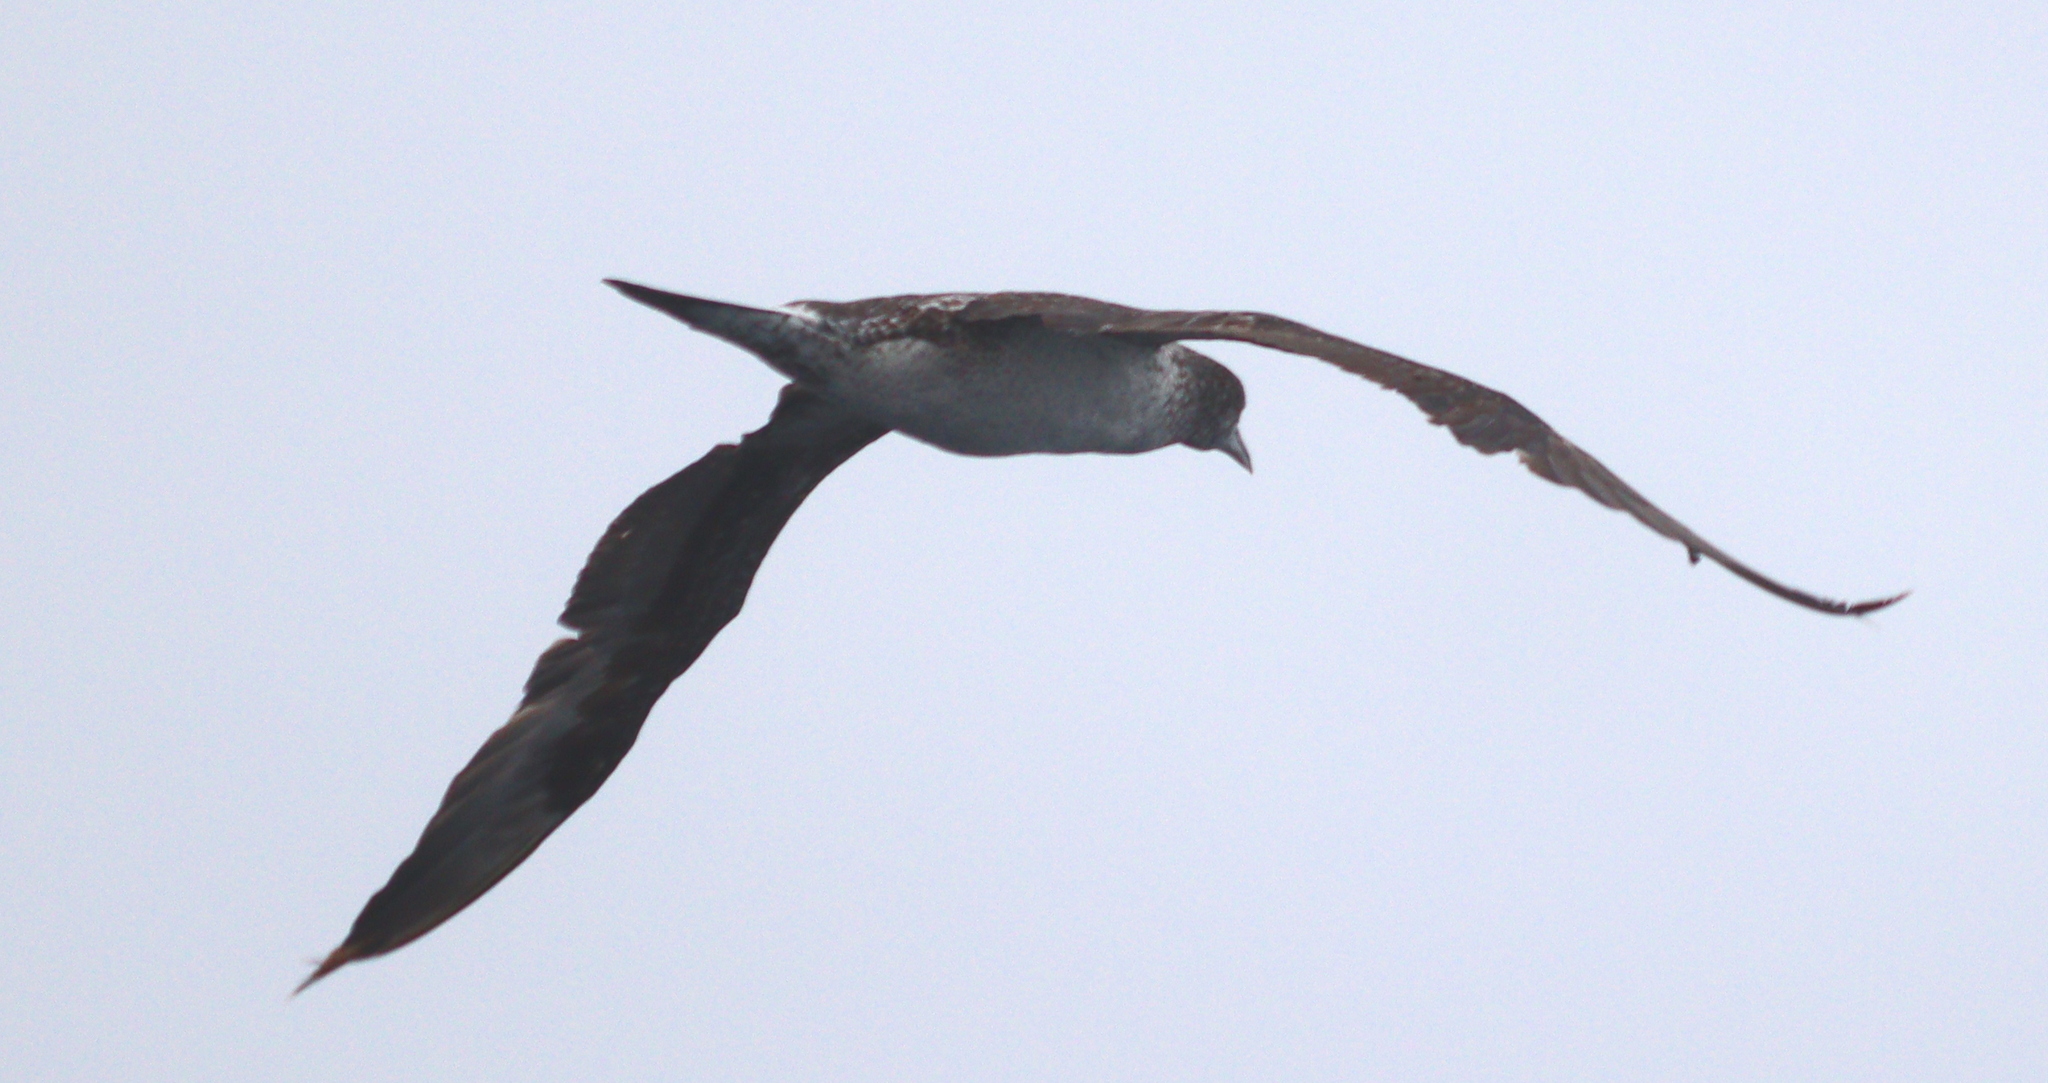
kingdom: Animalia
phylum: Chordata
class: Aves
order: Suliformes
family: Sulidae
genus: Morus
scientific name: Morus bassanus
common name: Northern gannet
